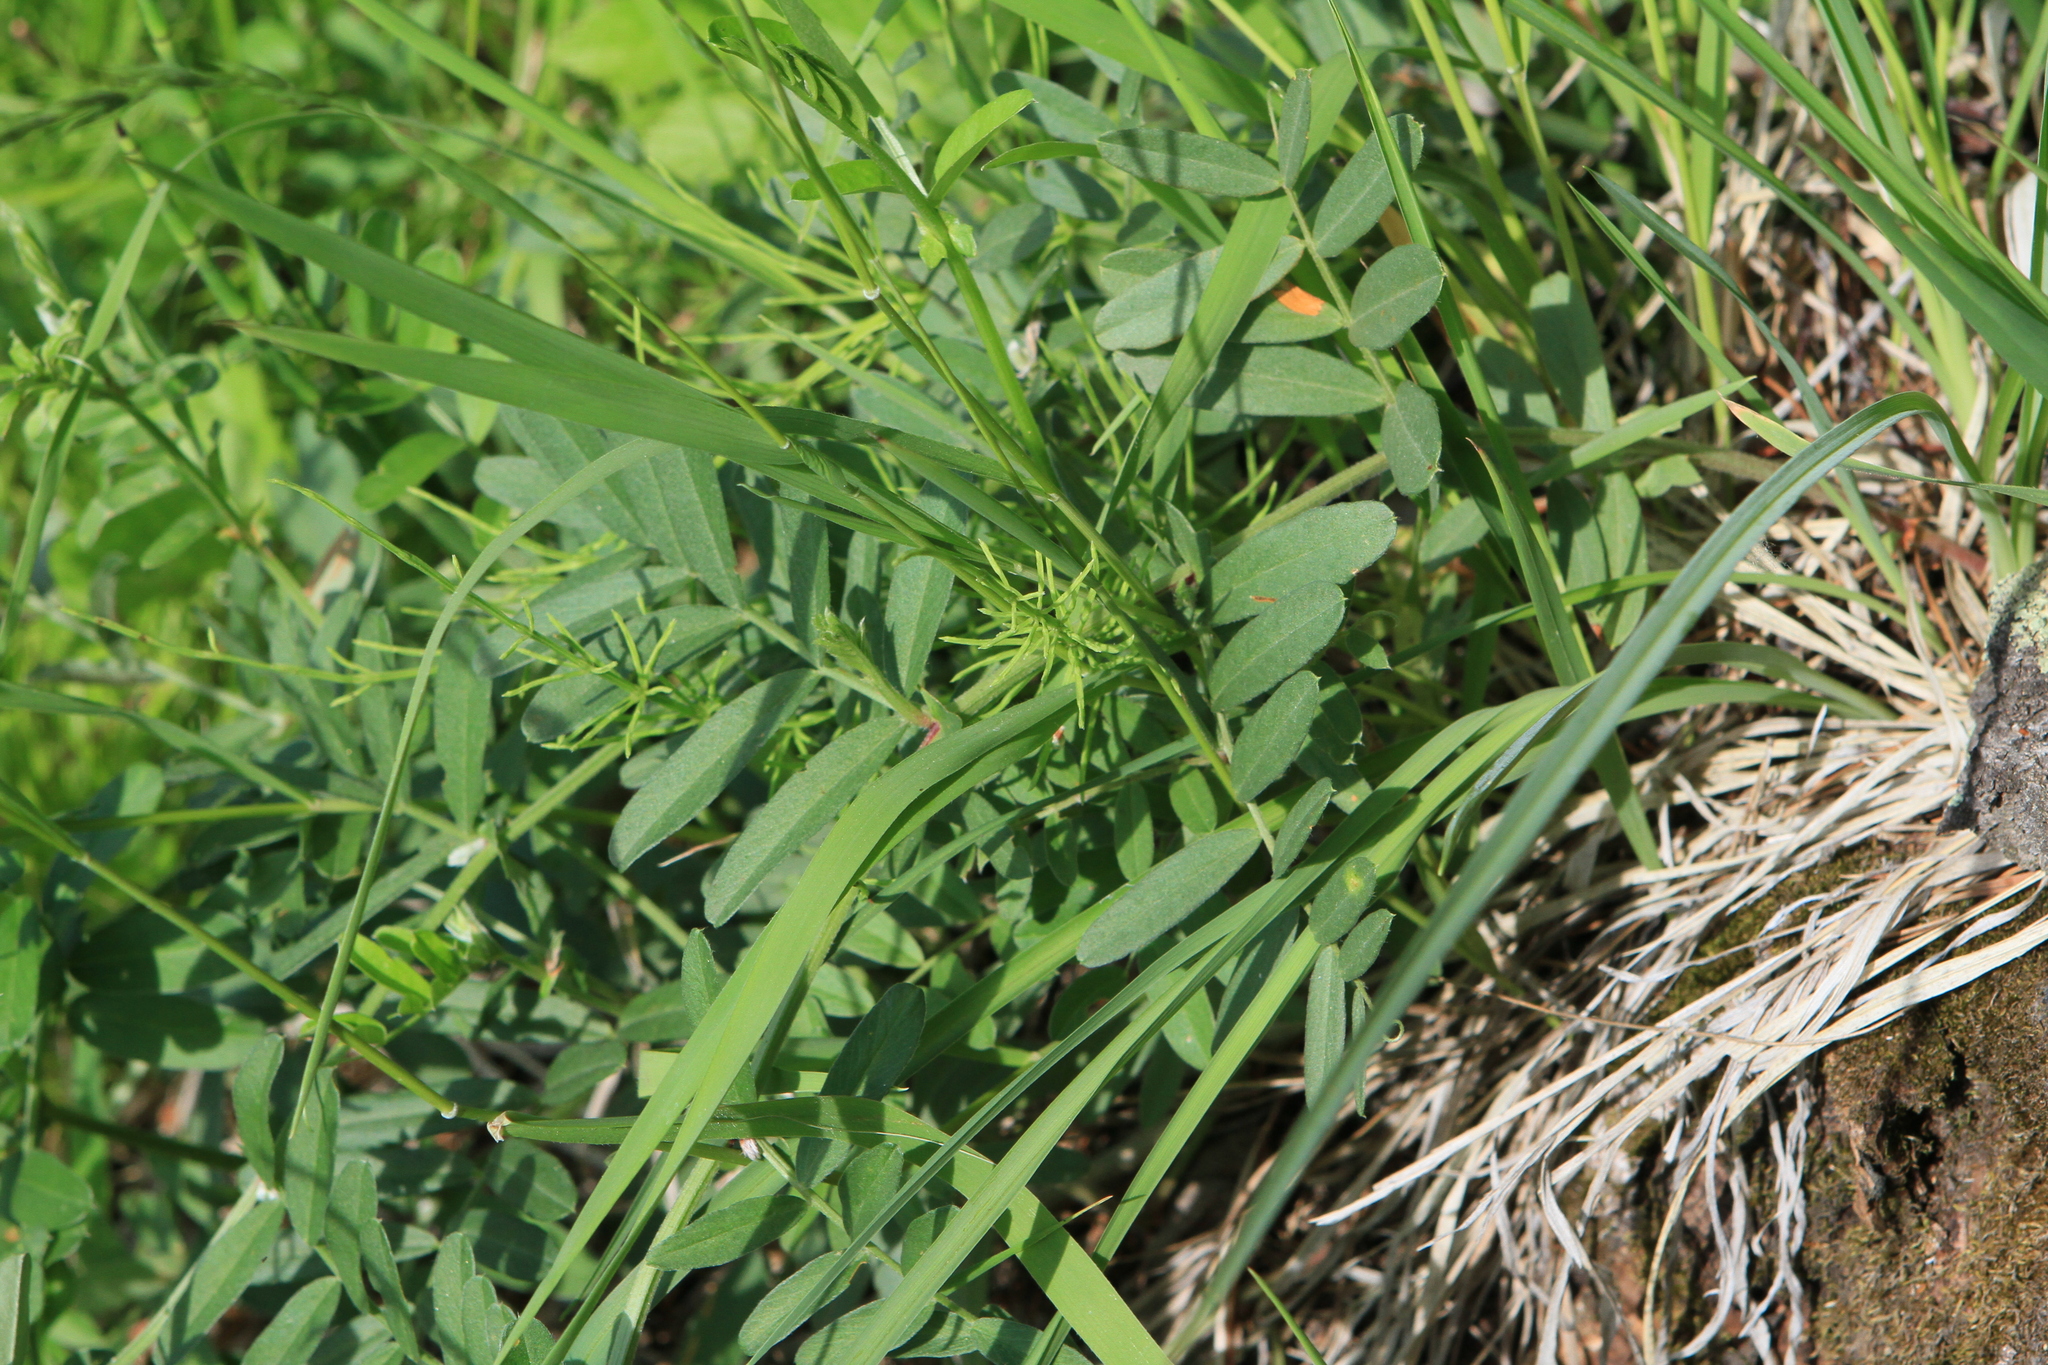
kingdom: Plantae
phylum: Tracheophyta
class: Magnoliopsida
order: Fabales
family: Fabaceae
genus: Vicia
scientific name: Vicia amoena
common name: Cheder ebs
